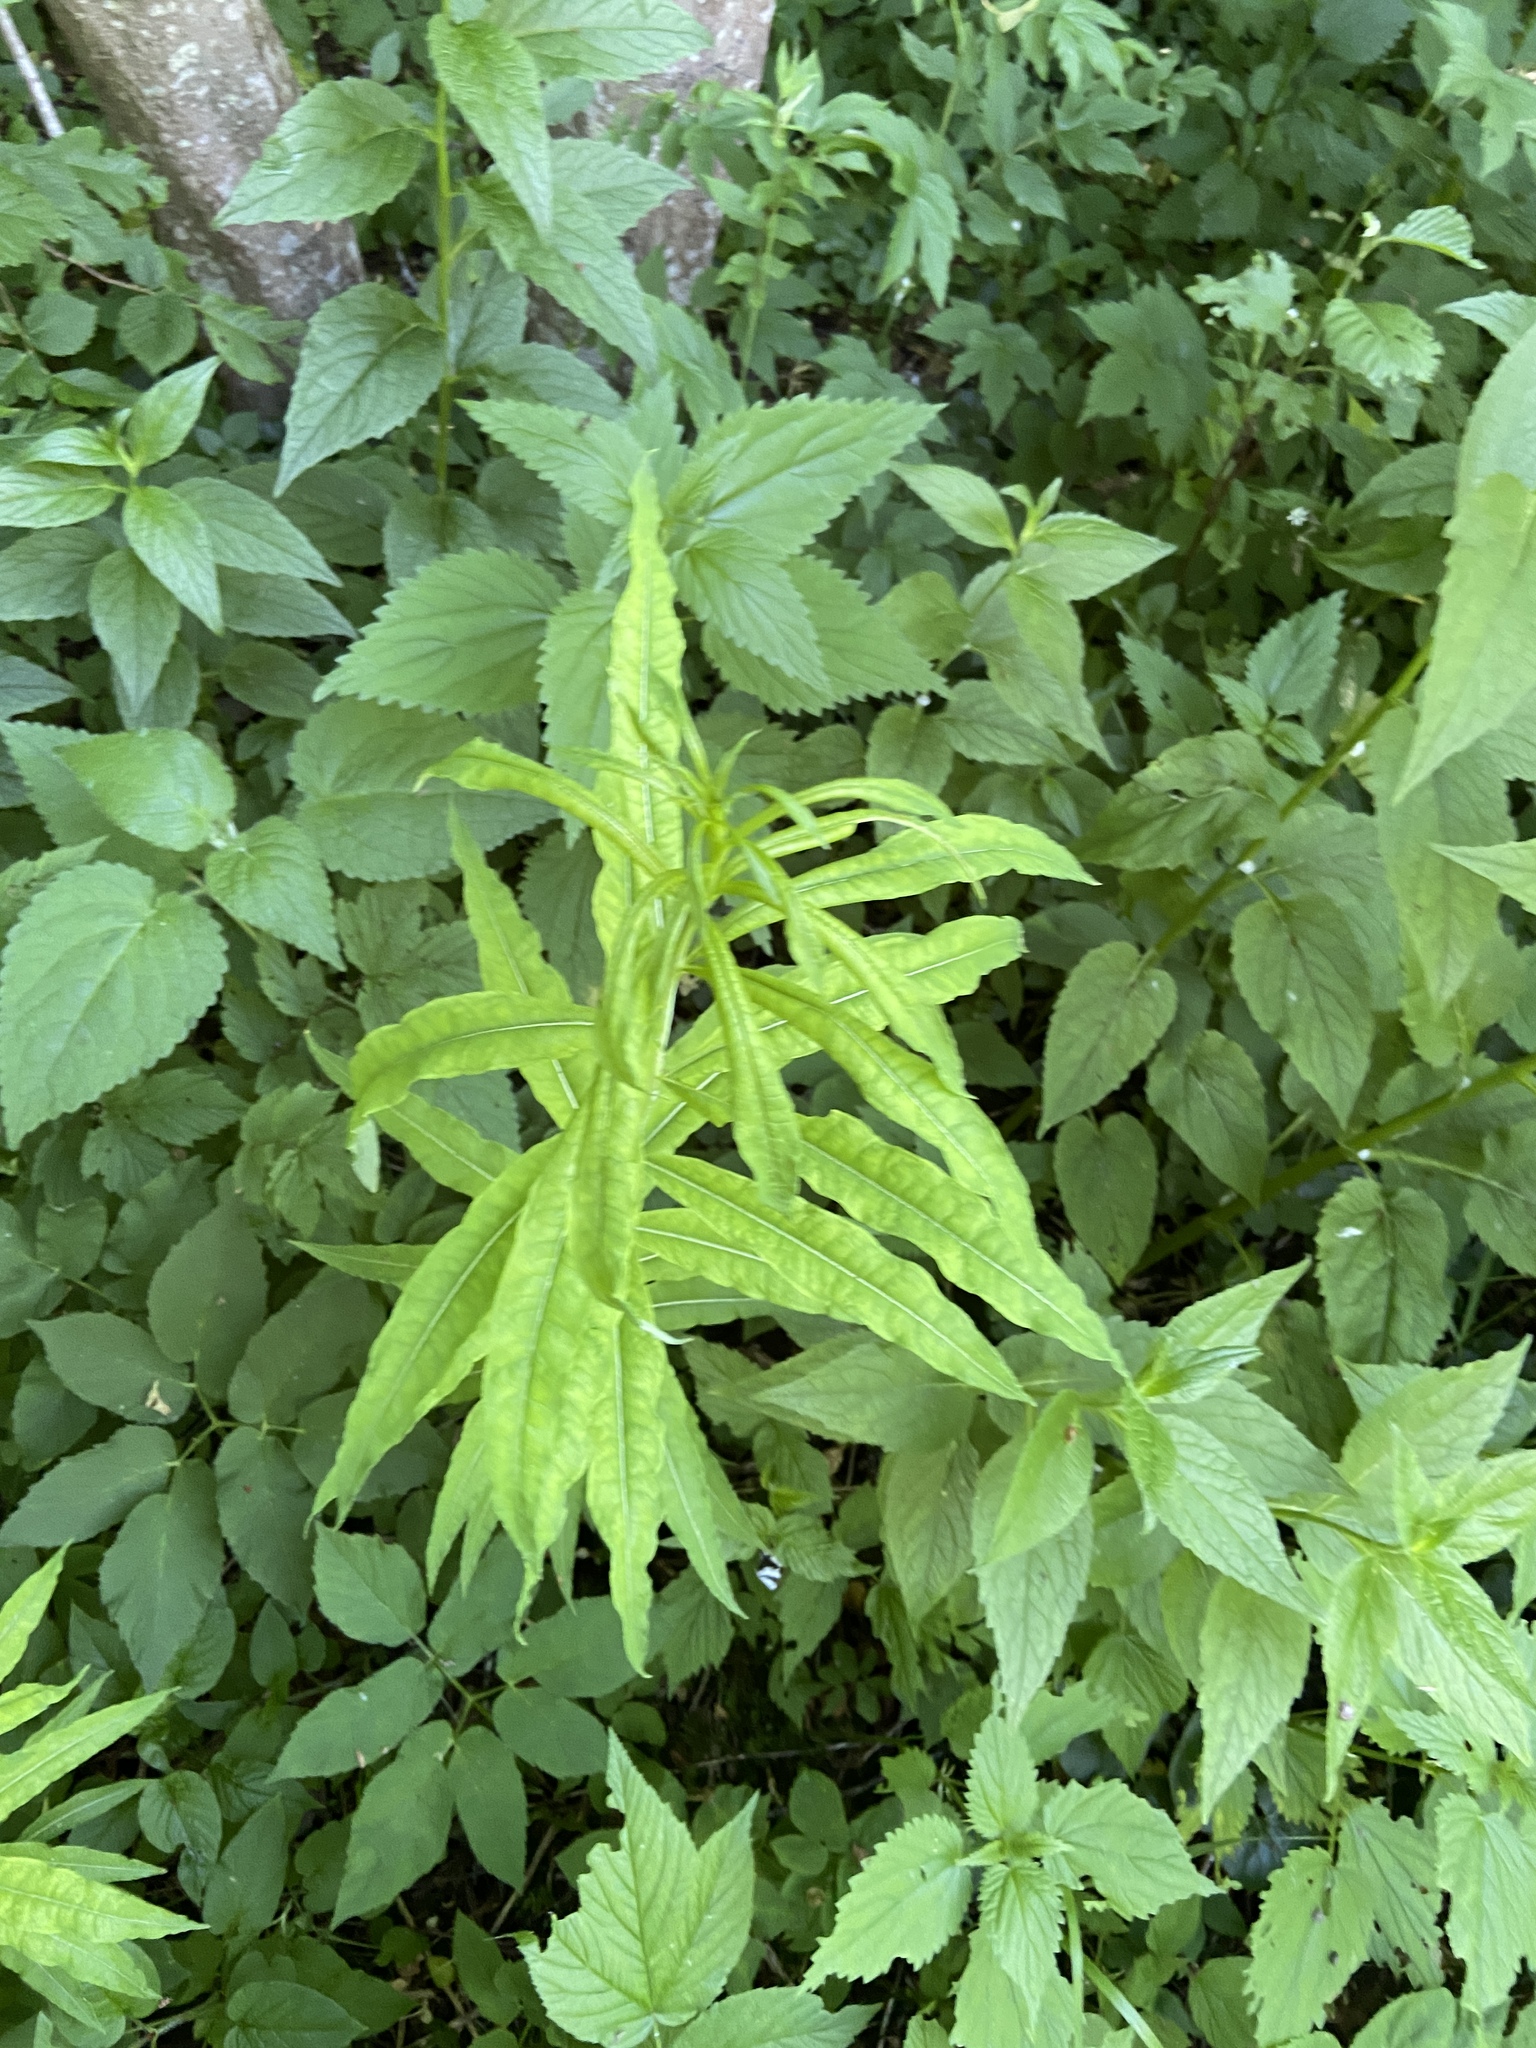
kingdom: Plantae
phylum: Tracheophyta
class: Magnoliopsida
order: Myrtales
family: Onagraceae
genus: Chamaenerion
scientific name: Chamaenerion angustifolium
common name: Fireweed
